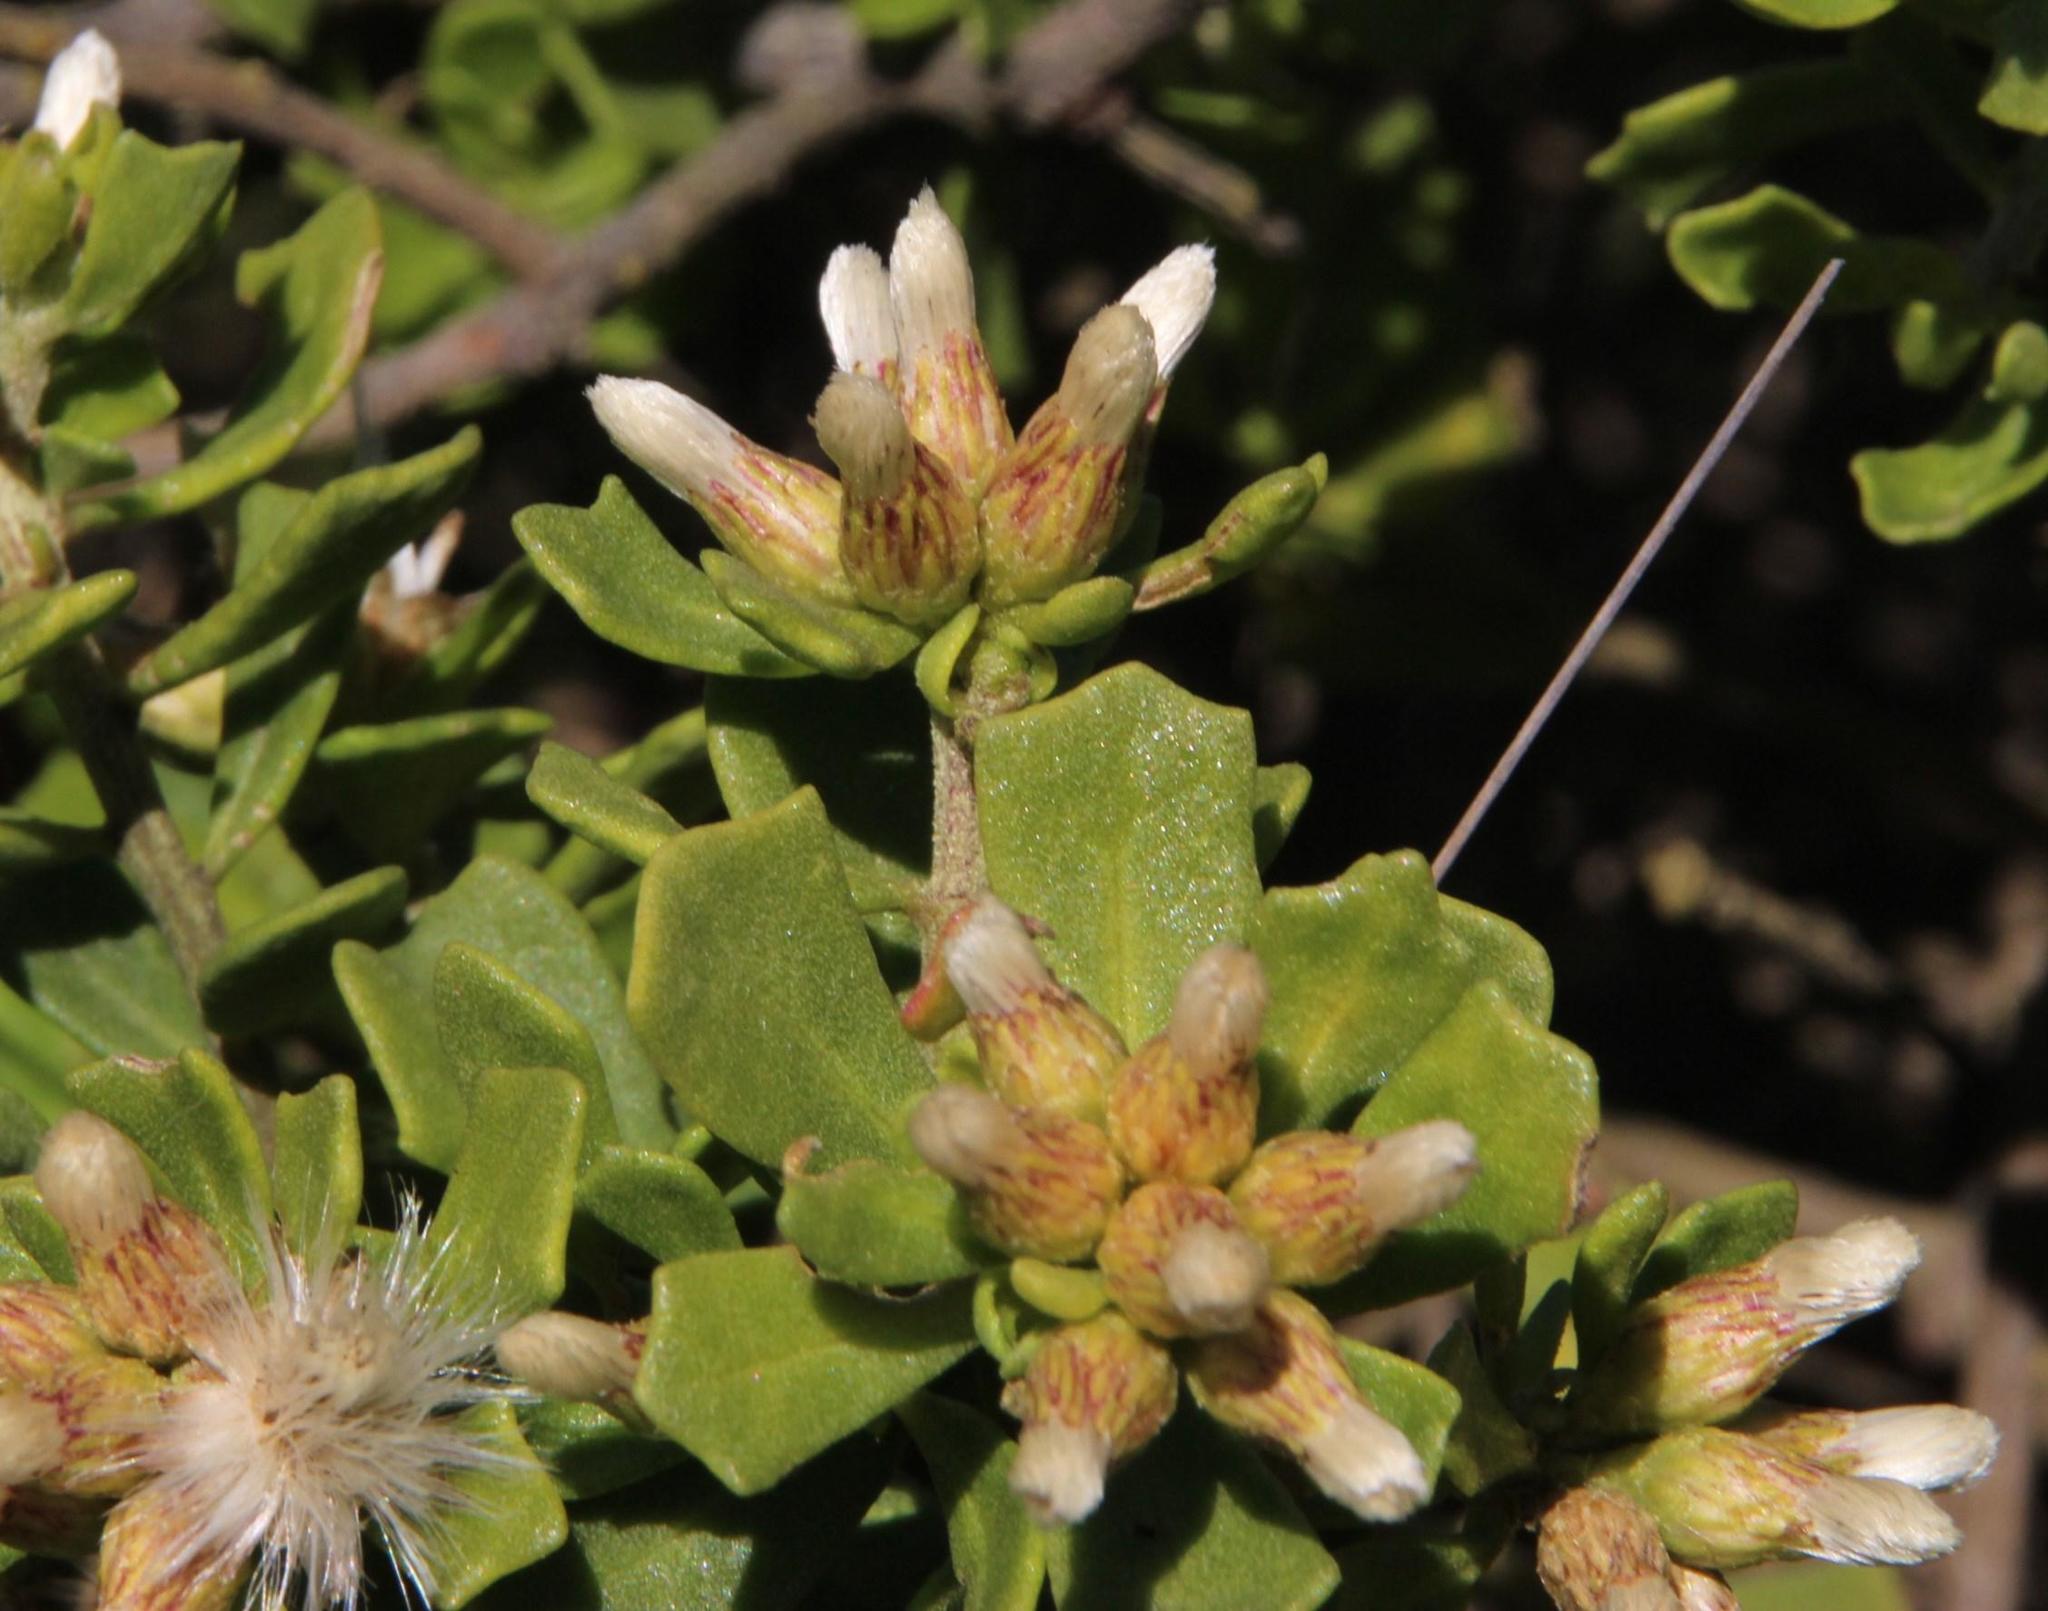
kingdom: Plantae
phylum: Tracheophyta
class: Magnoliopsida
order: Asterales
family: Asteraceae
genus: Baccharis
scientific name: Baccharis vernalis
